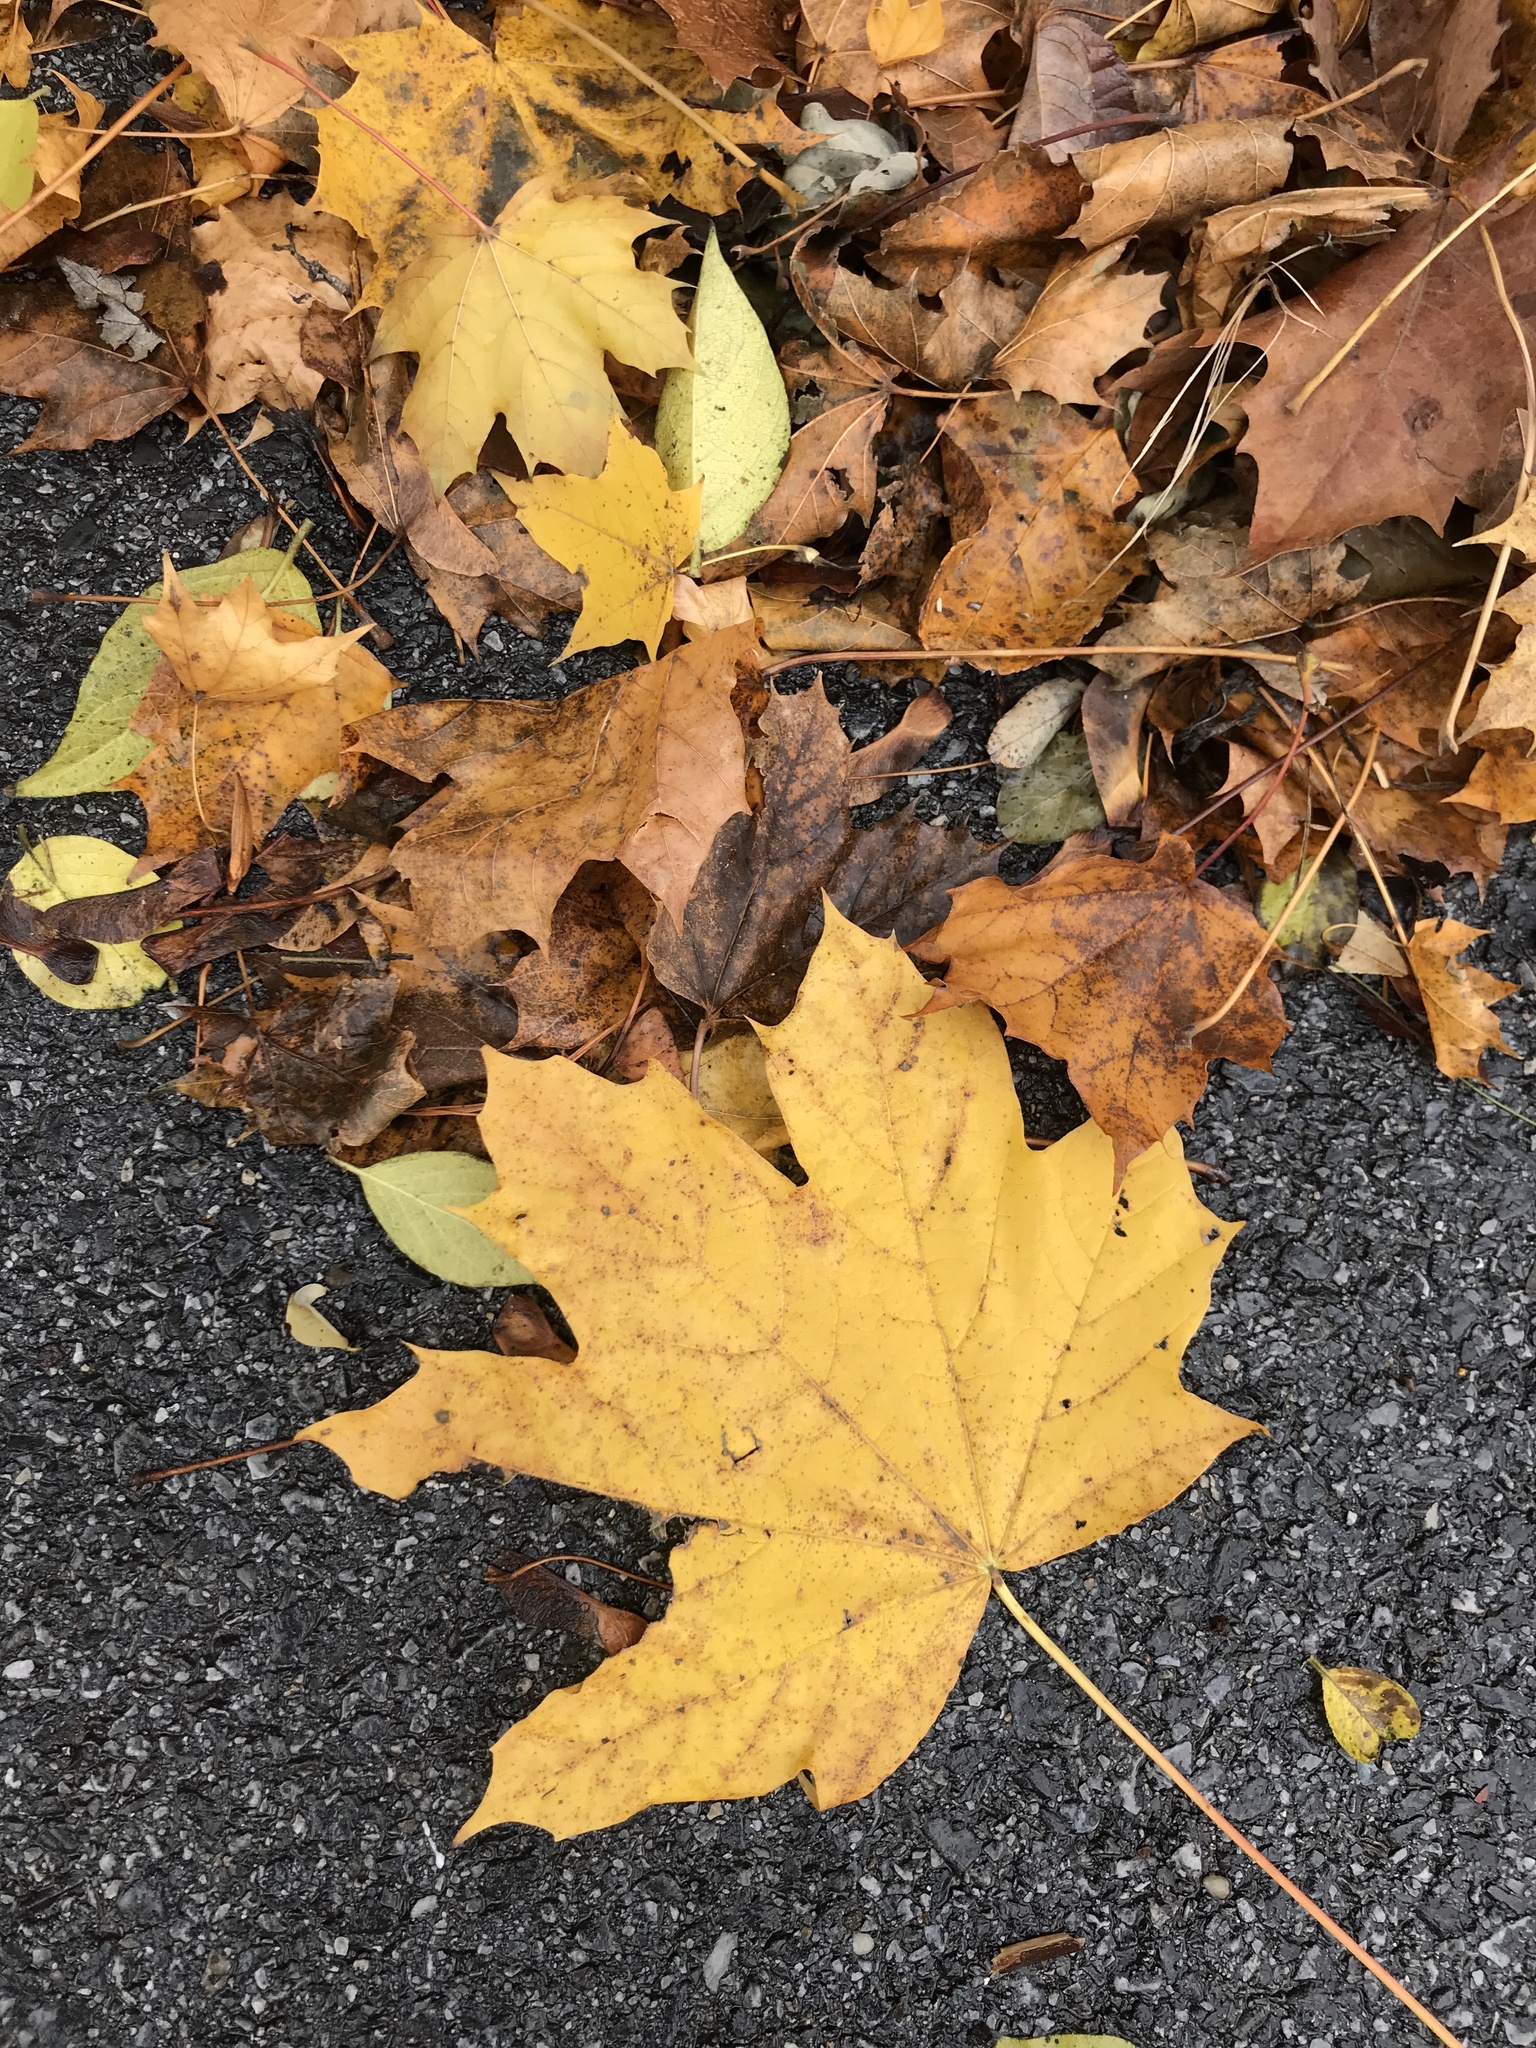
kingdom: Plantae
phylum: Tracheophyta
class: Magnoliopsida
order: Sapindales
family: Sapindaceae
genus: Acer
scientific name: Acer platanoides
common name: Norway maple
